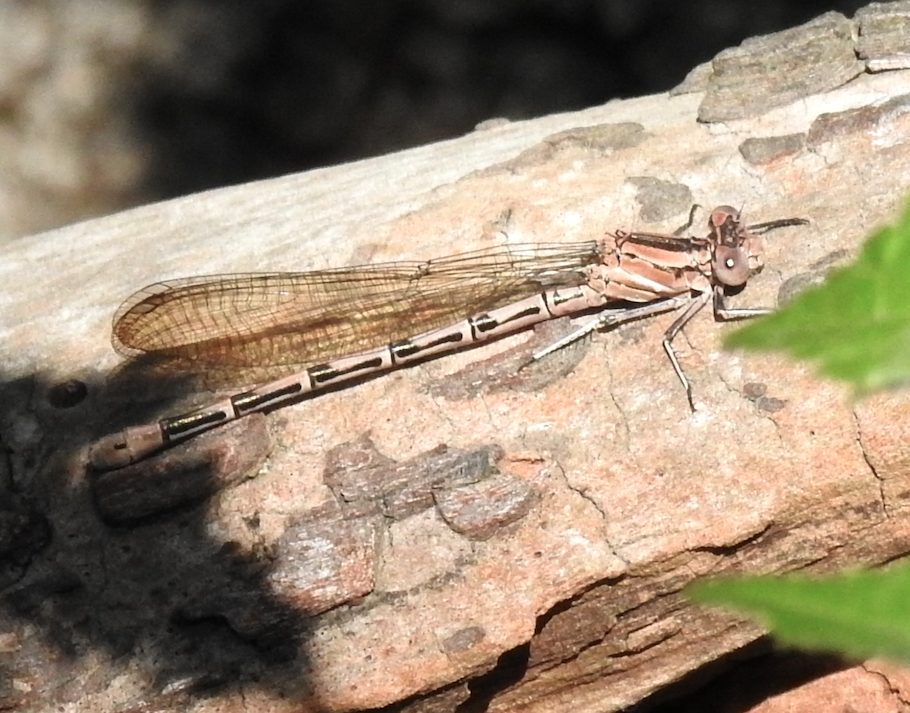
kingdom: Animalia
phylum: Arthropoda
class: Insecta
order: Odonata
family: Coenagrionidae
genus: Argia
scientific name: Argia vivida
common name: Vivid dancer
